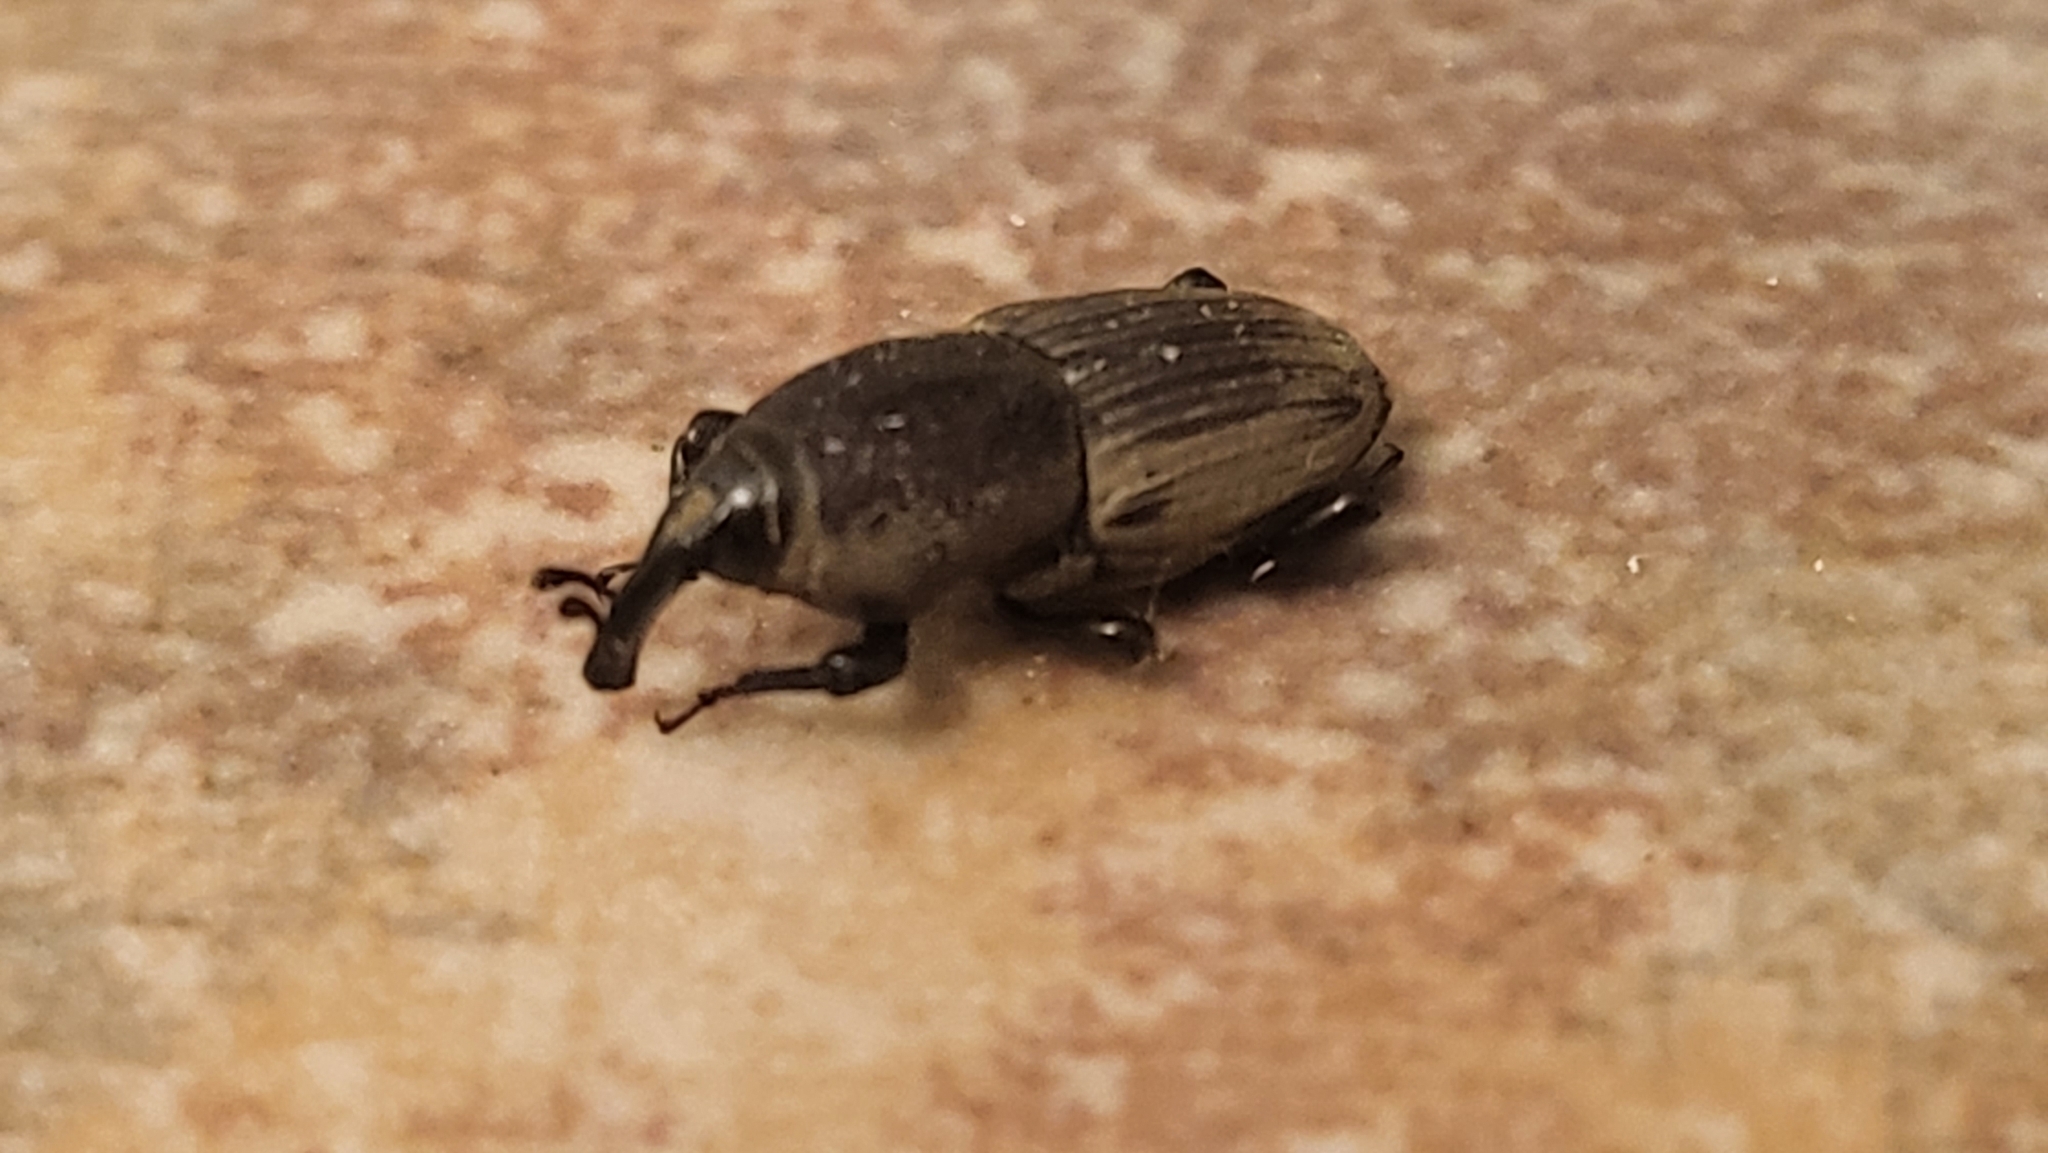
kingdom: Animalia
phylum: Arthropoda
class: Insecta
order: Coleoptera
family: Dryophthoridae
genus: Sphenophorus
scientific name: Sphenophorus coesifrons
